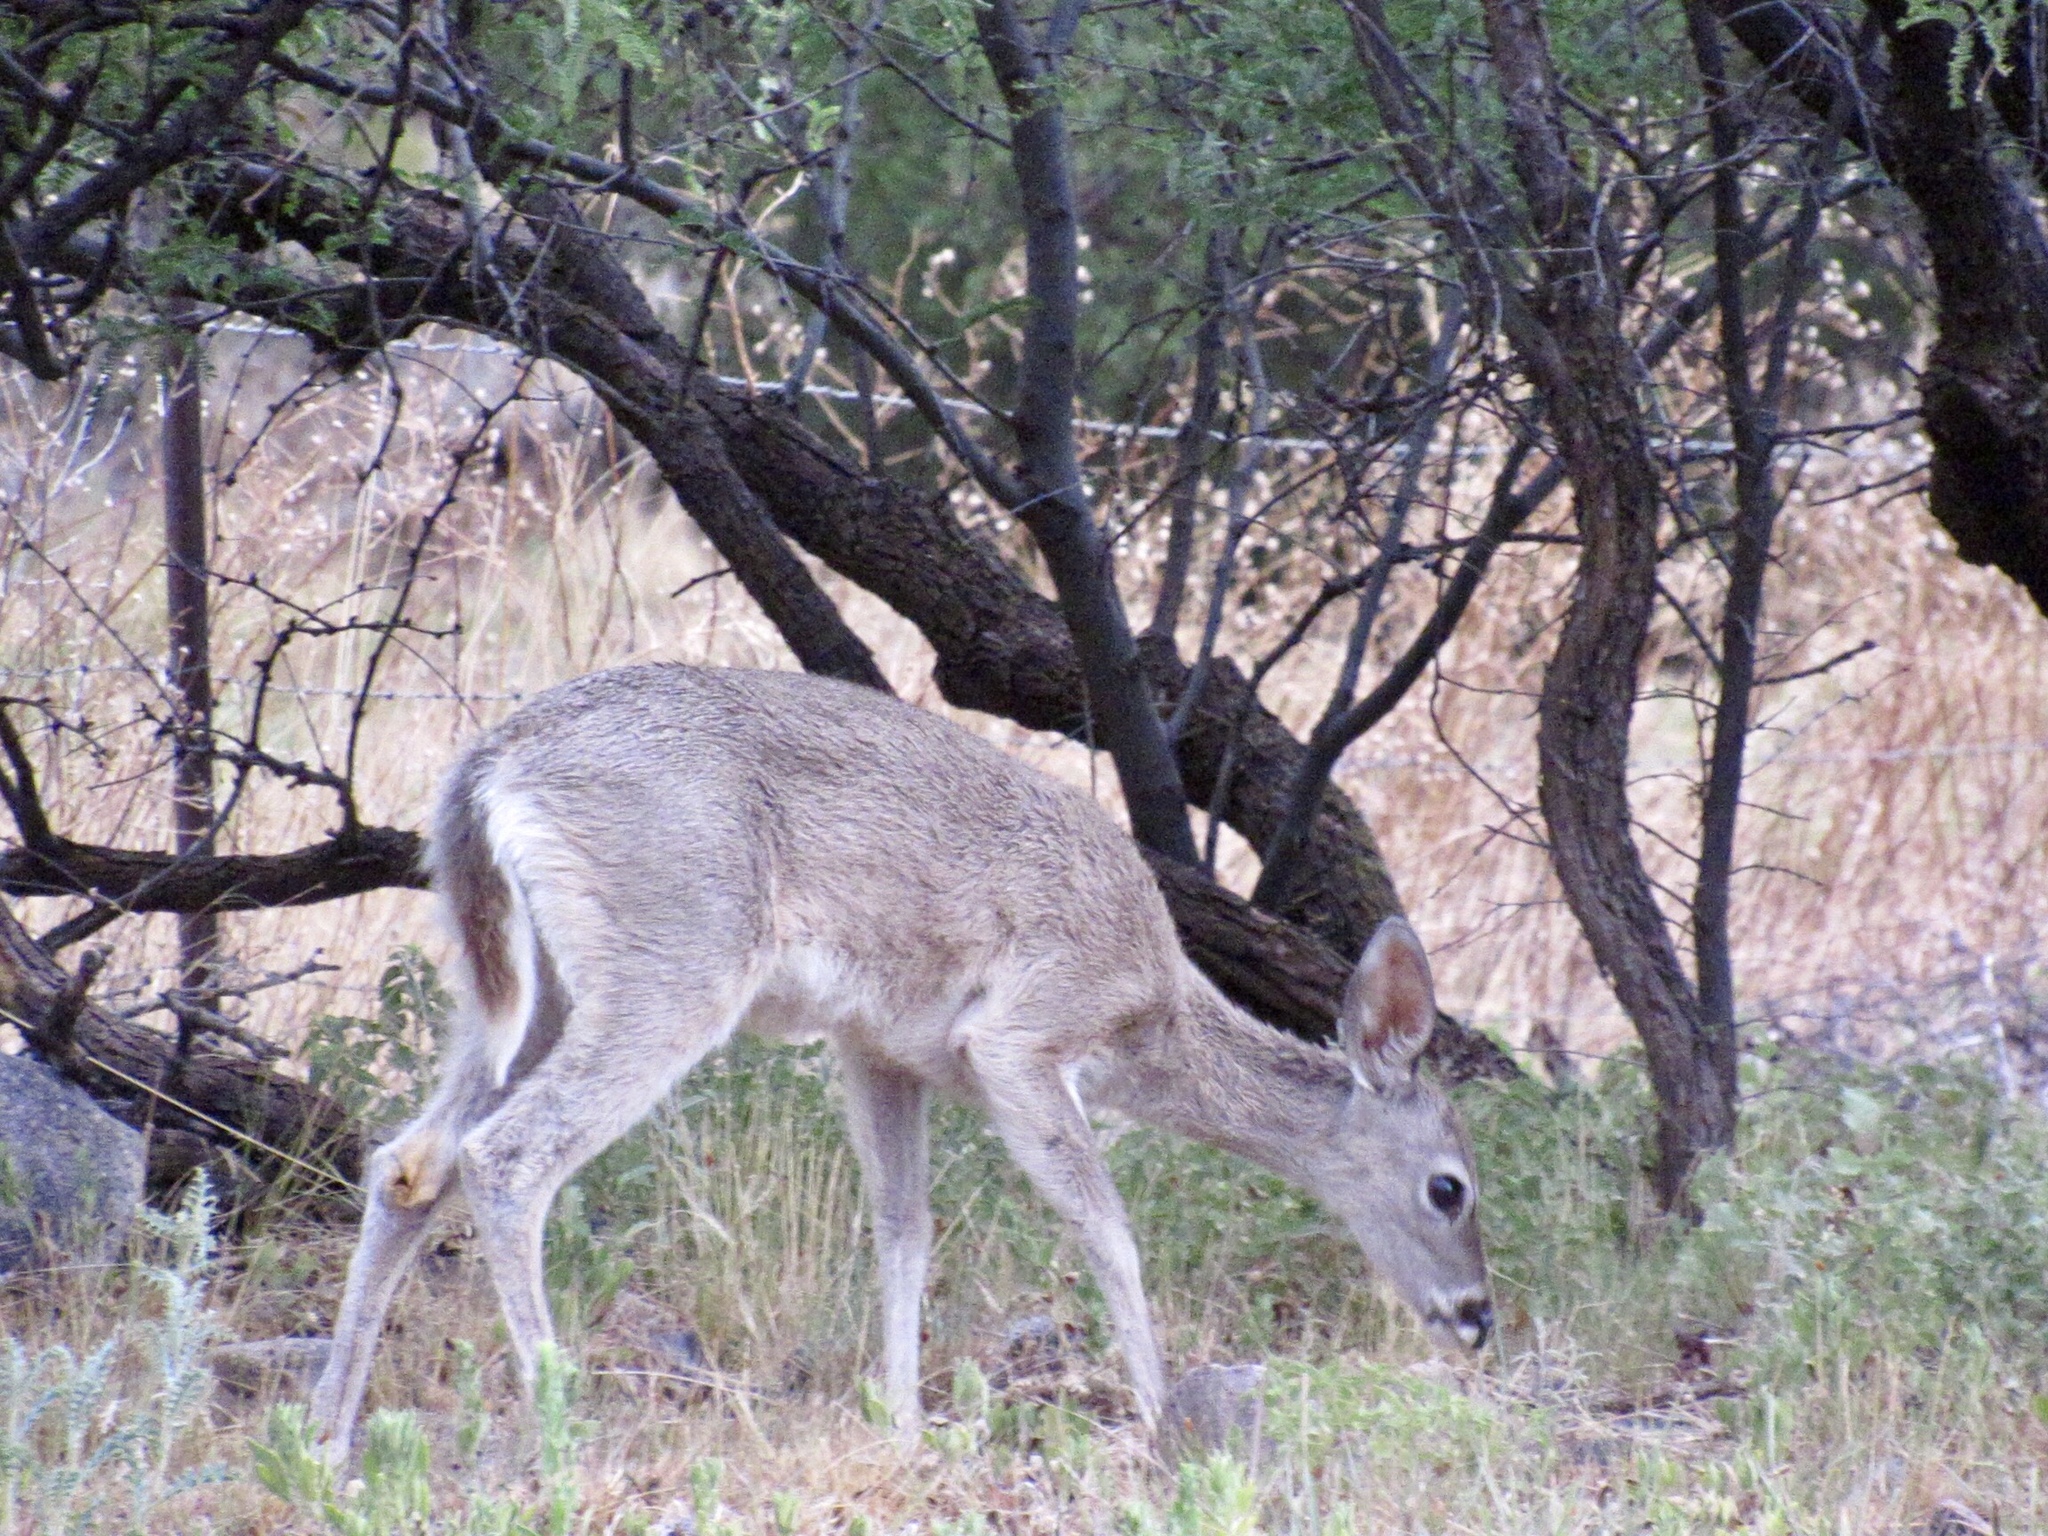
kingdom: Animalia
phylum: Chordata
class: Mammalia
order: Artiodactyla
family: Cervidae
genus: Odocoileus
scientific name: Odocoileus virginianus
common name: White-tailed deer
